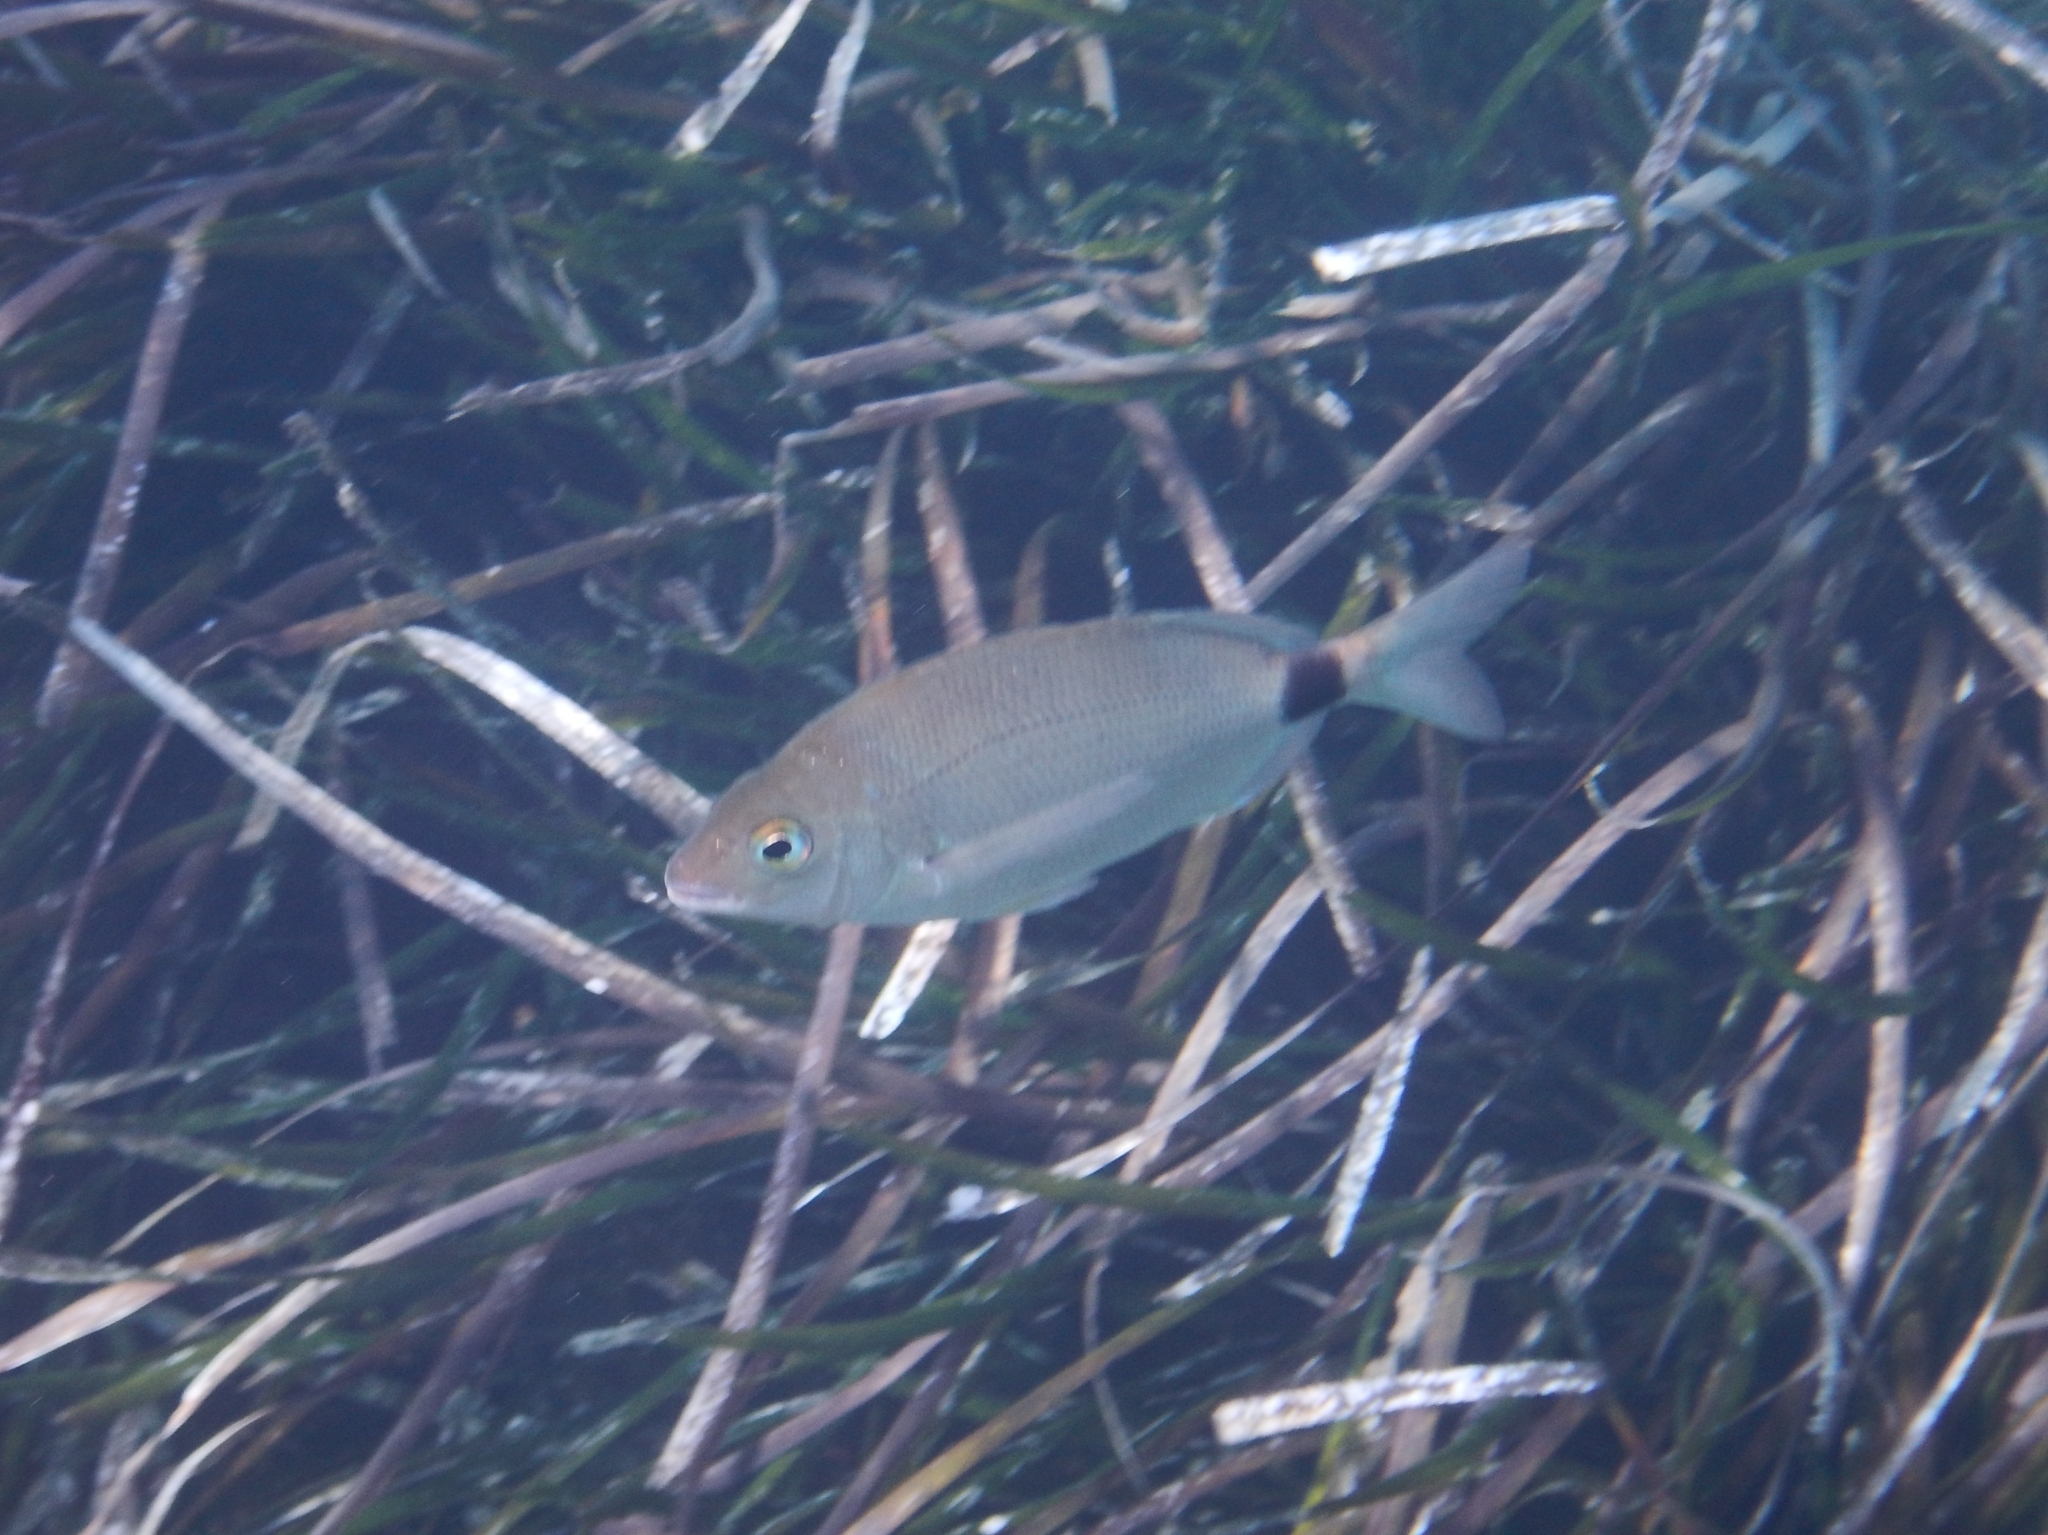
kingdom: Animalia
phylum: Chordata
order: Perciformes
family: Sparidae
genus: Diplodus
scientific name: Diplodus annularis
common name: Annular seabream
